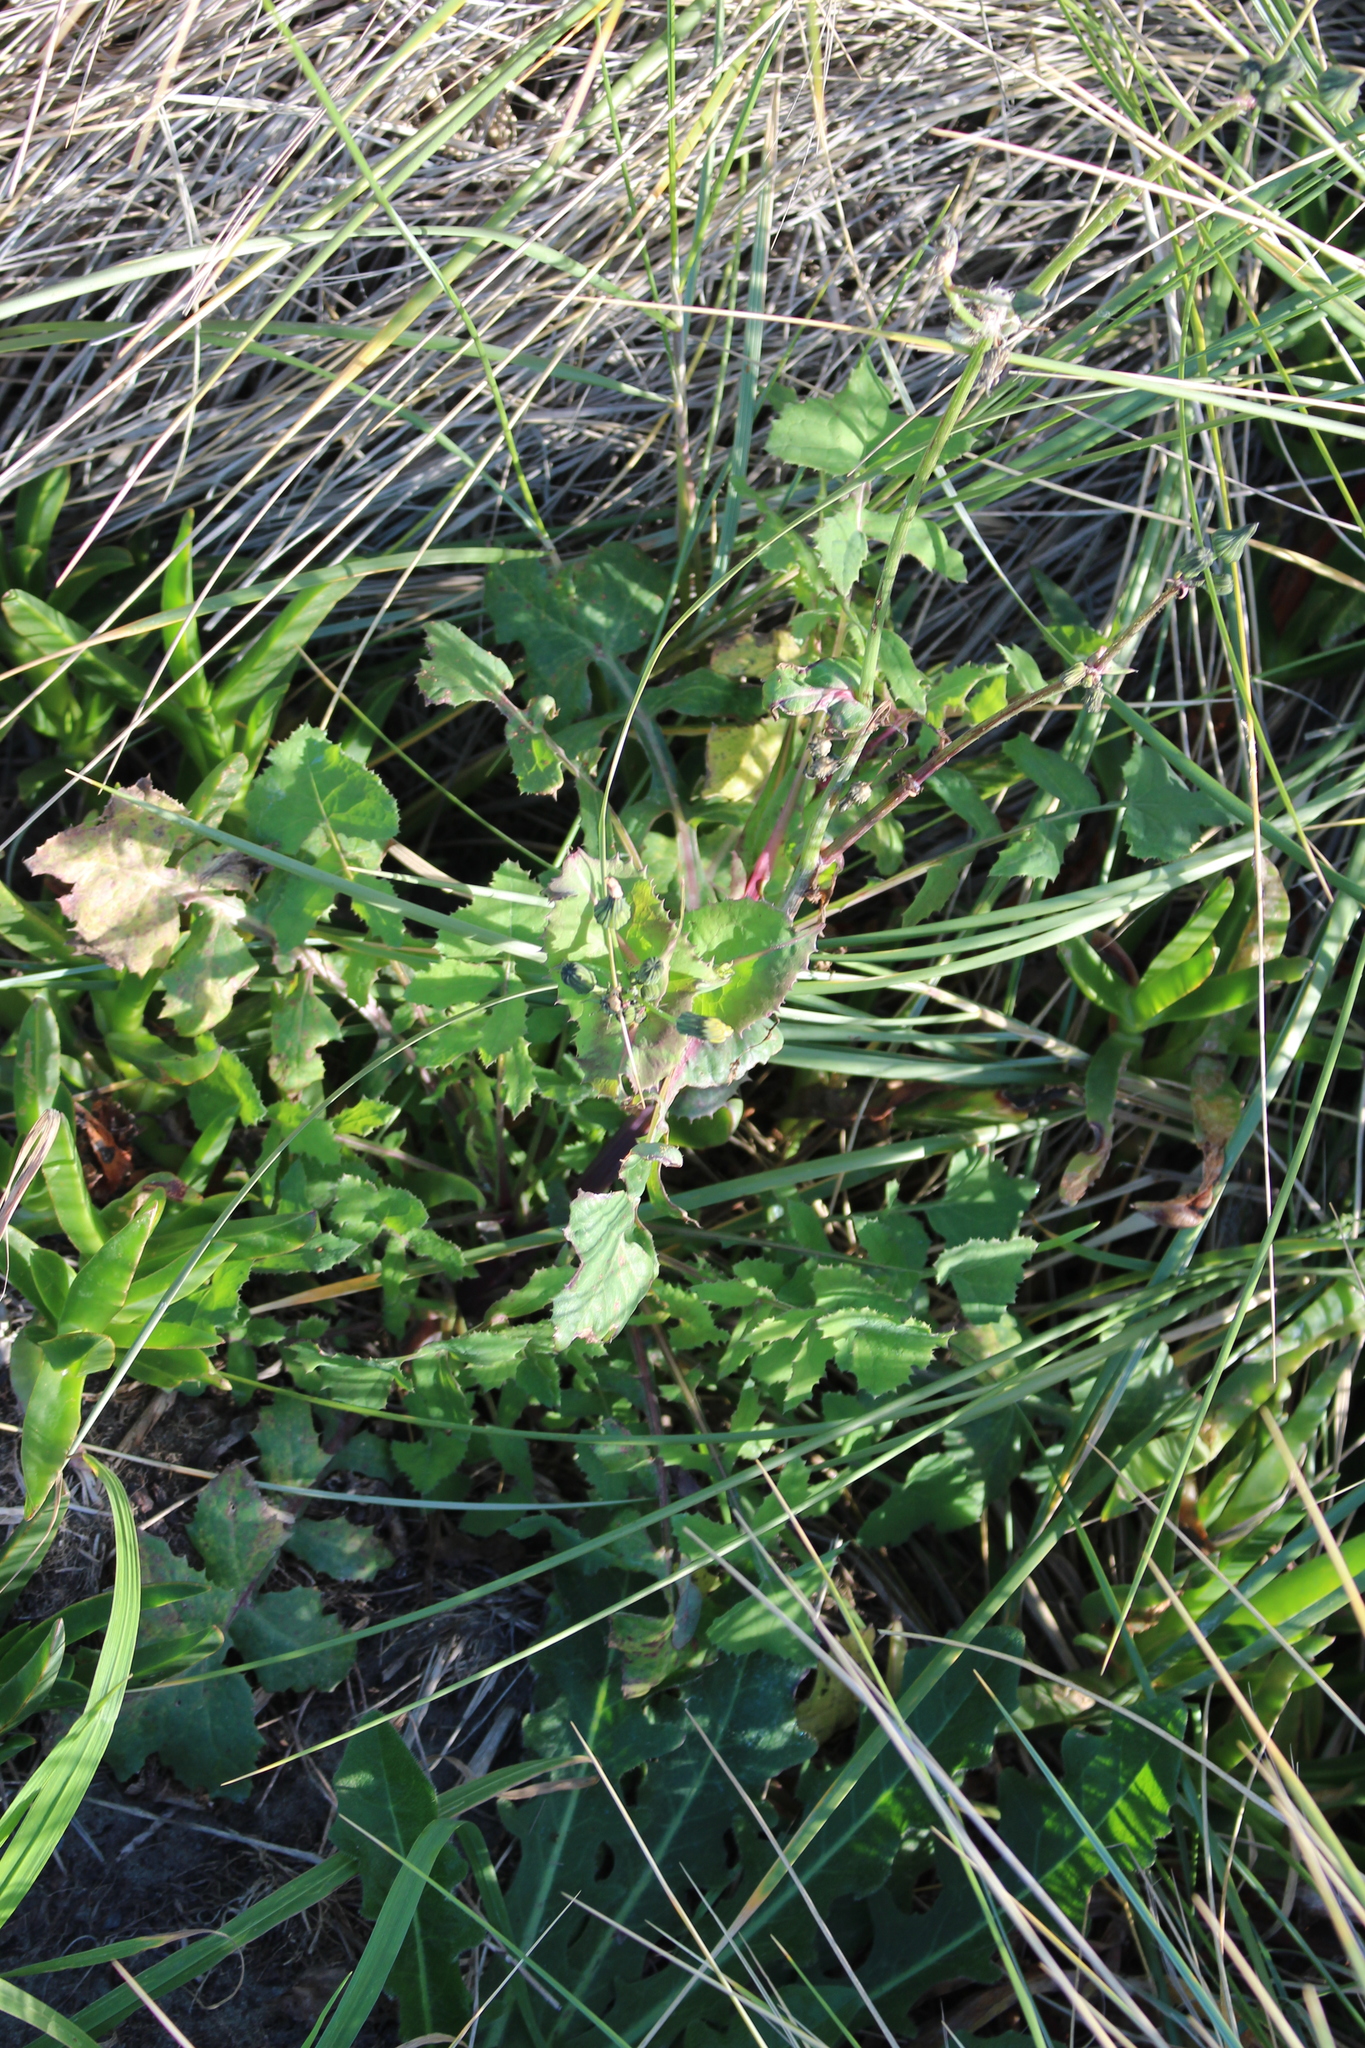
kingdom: Plantae
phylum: Tracheophyta
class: Magnoliopsida
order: Asterales
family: Asteraceae
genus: Sonchus
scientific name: Sonchus oleraceus
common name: Common sowthistle
